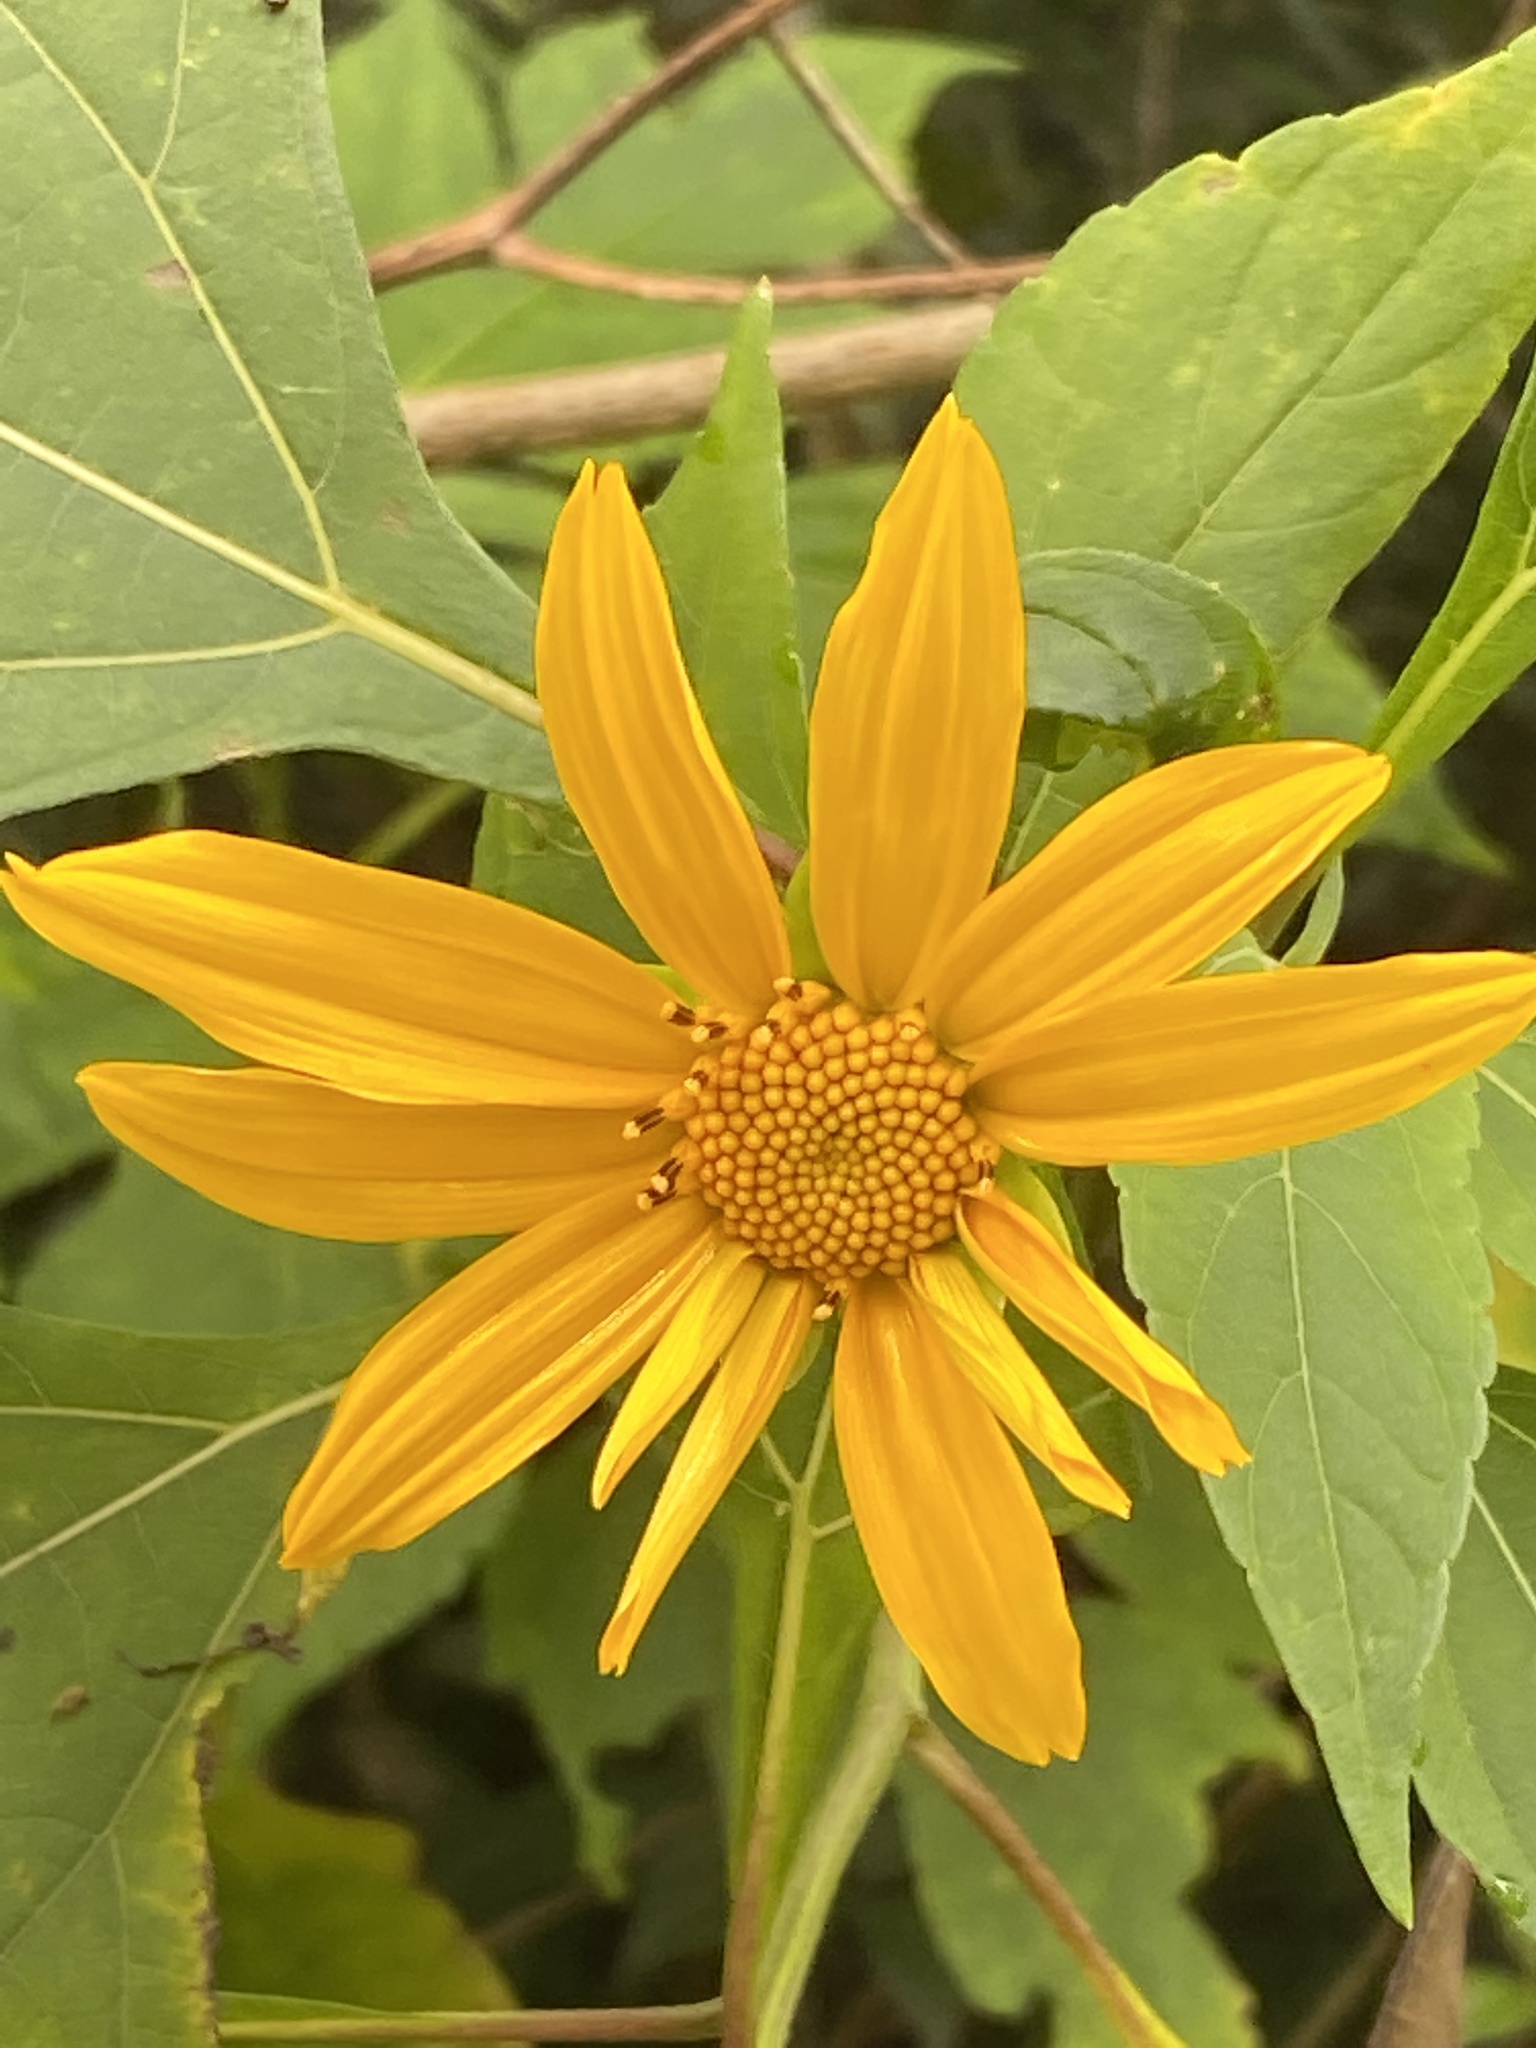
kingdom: Plantae
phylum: Tracheophyta
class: Magnoliopsida
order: Asterales
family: Asteraceae
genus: Tithonia
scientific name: Tithonia diversifolia
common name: Tree marigold
